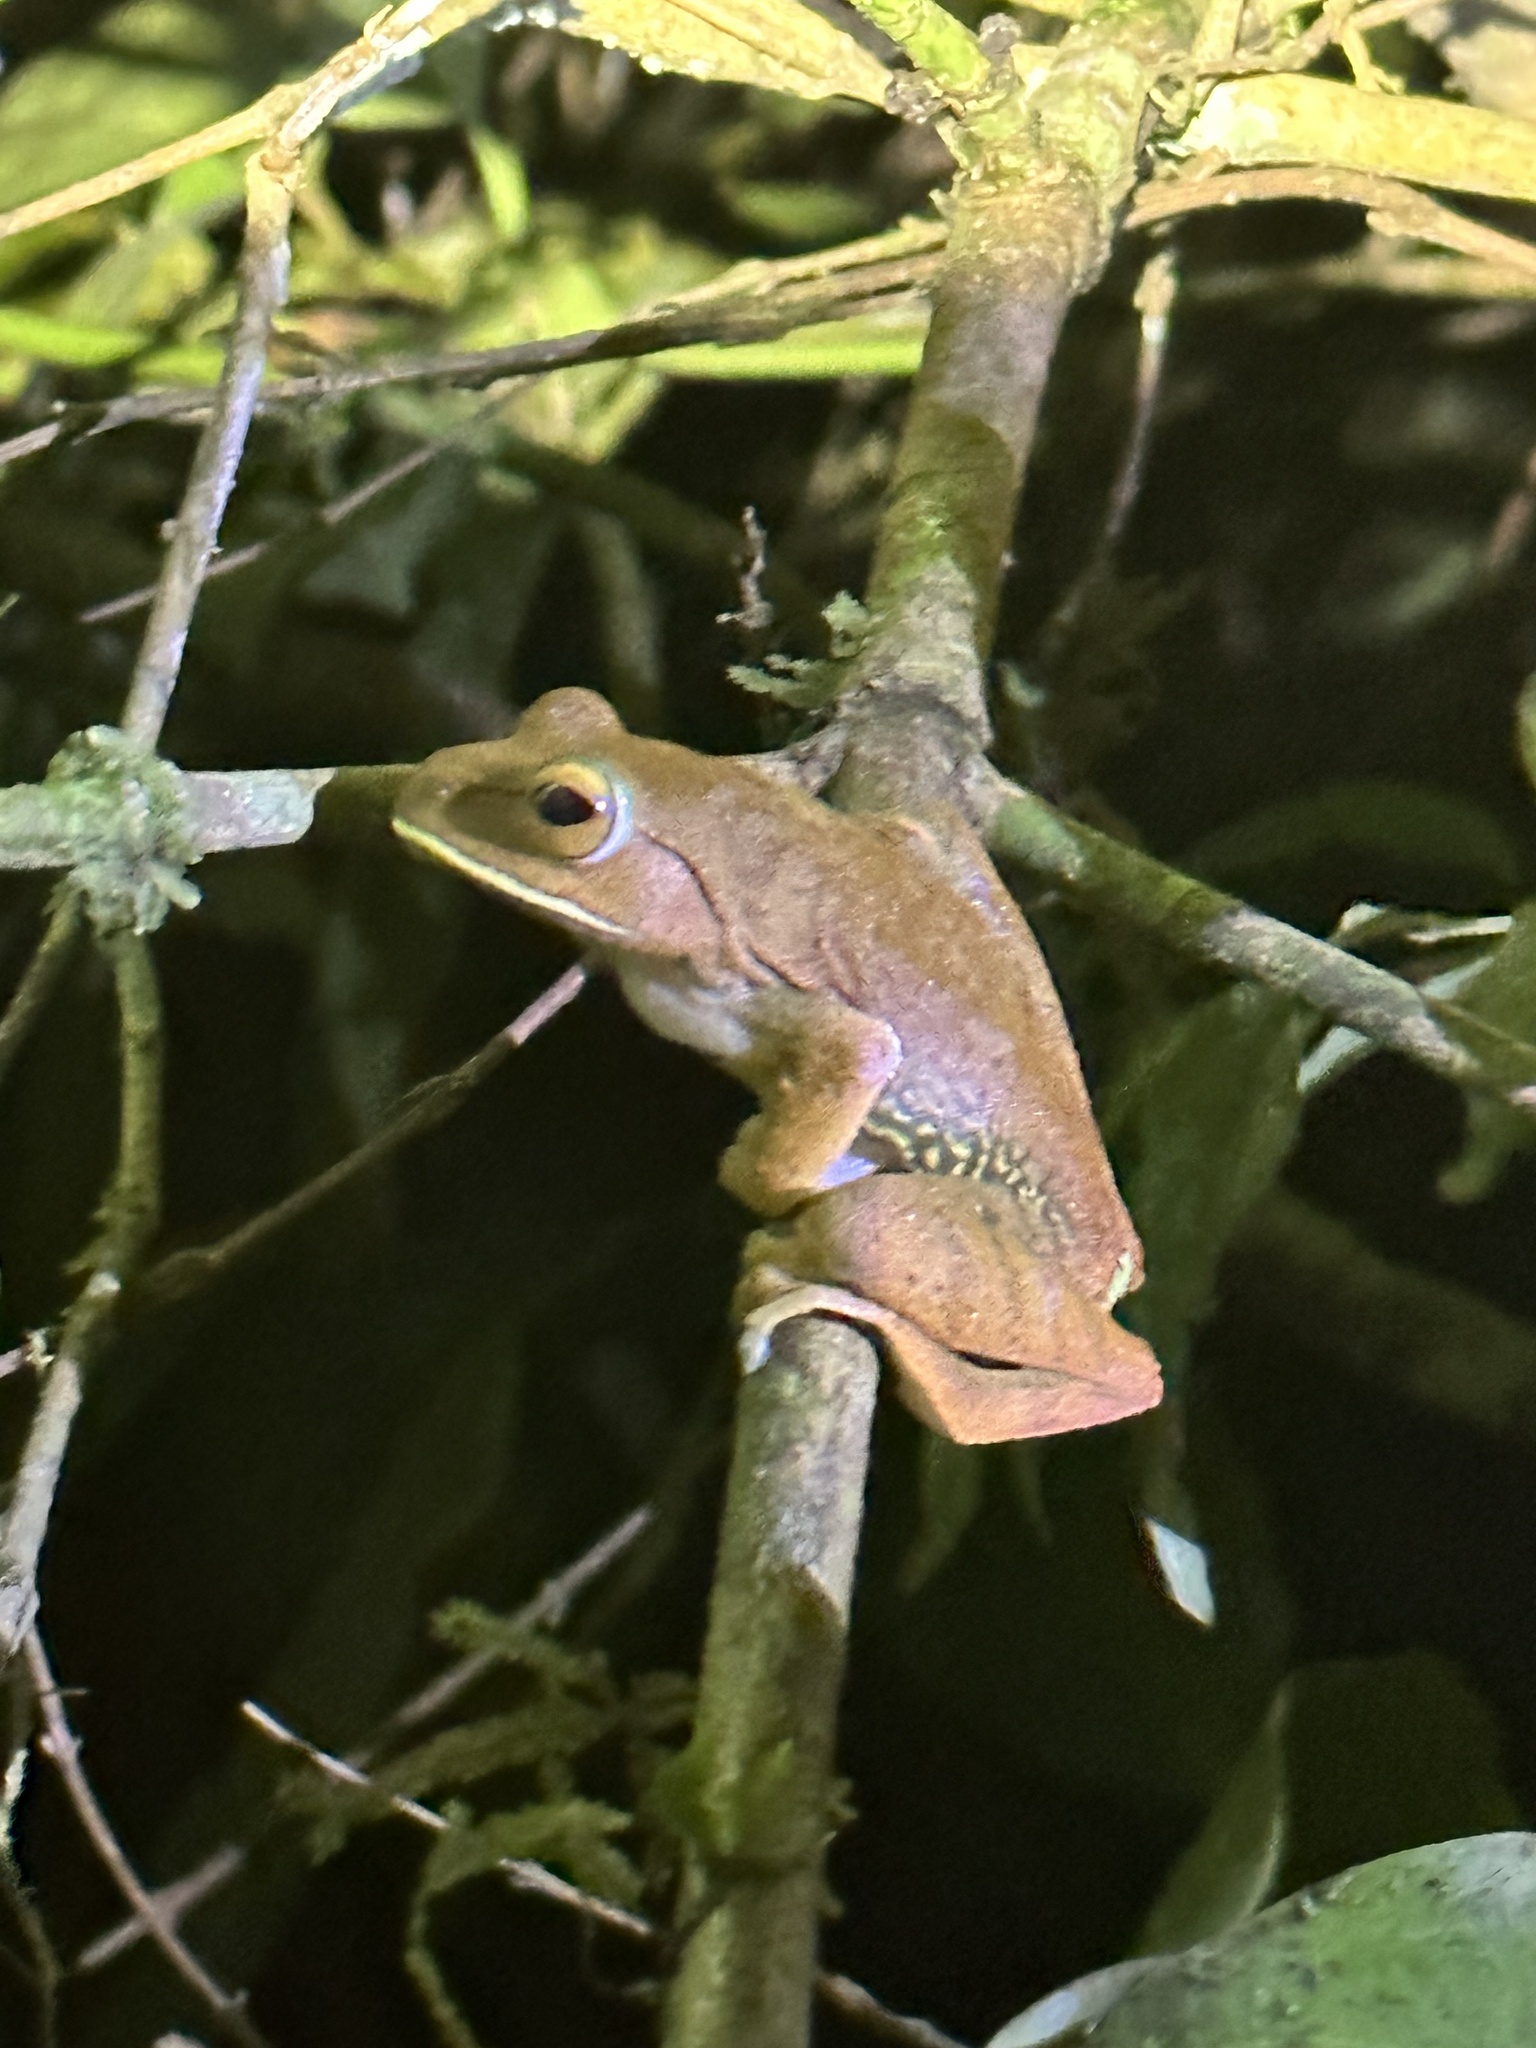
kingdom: Animalia
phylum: Chordata
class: Amphibia
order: Anura
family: Mantellidae
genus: Boophis
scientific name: Boophis albilabris
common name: White-lipped bright-eyed frog
